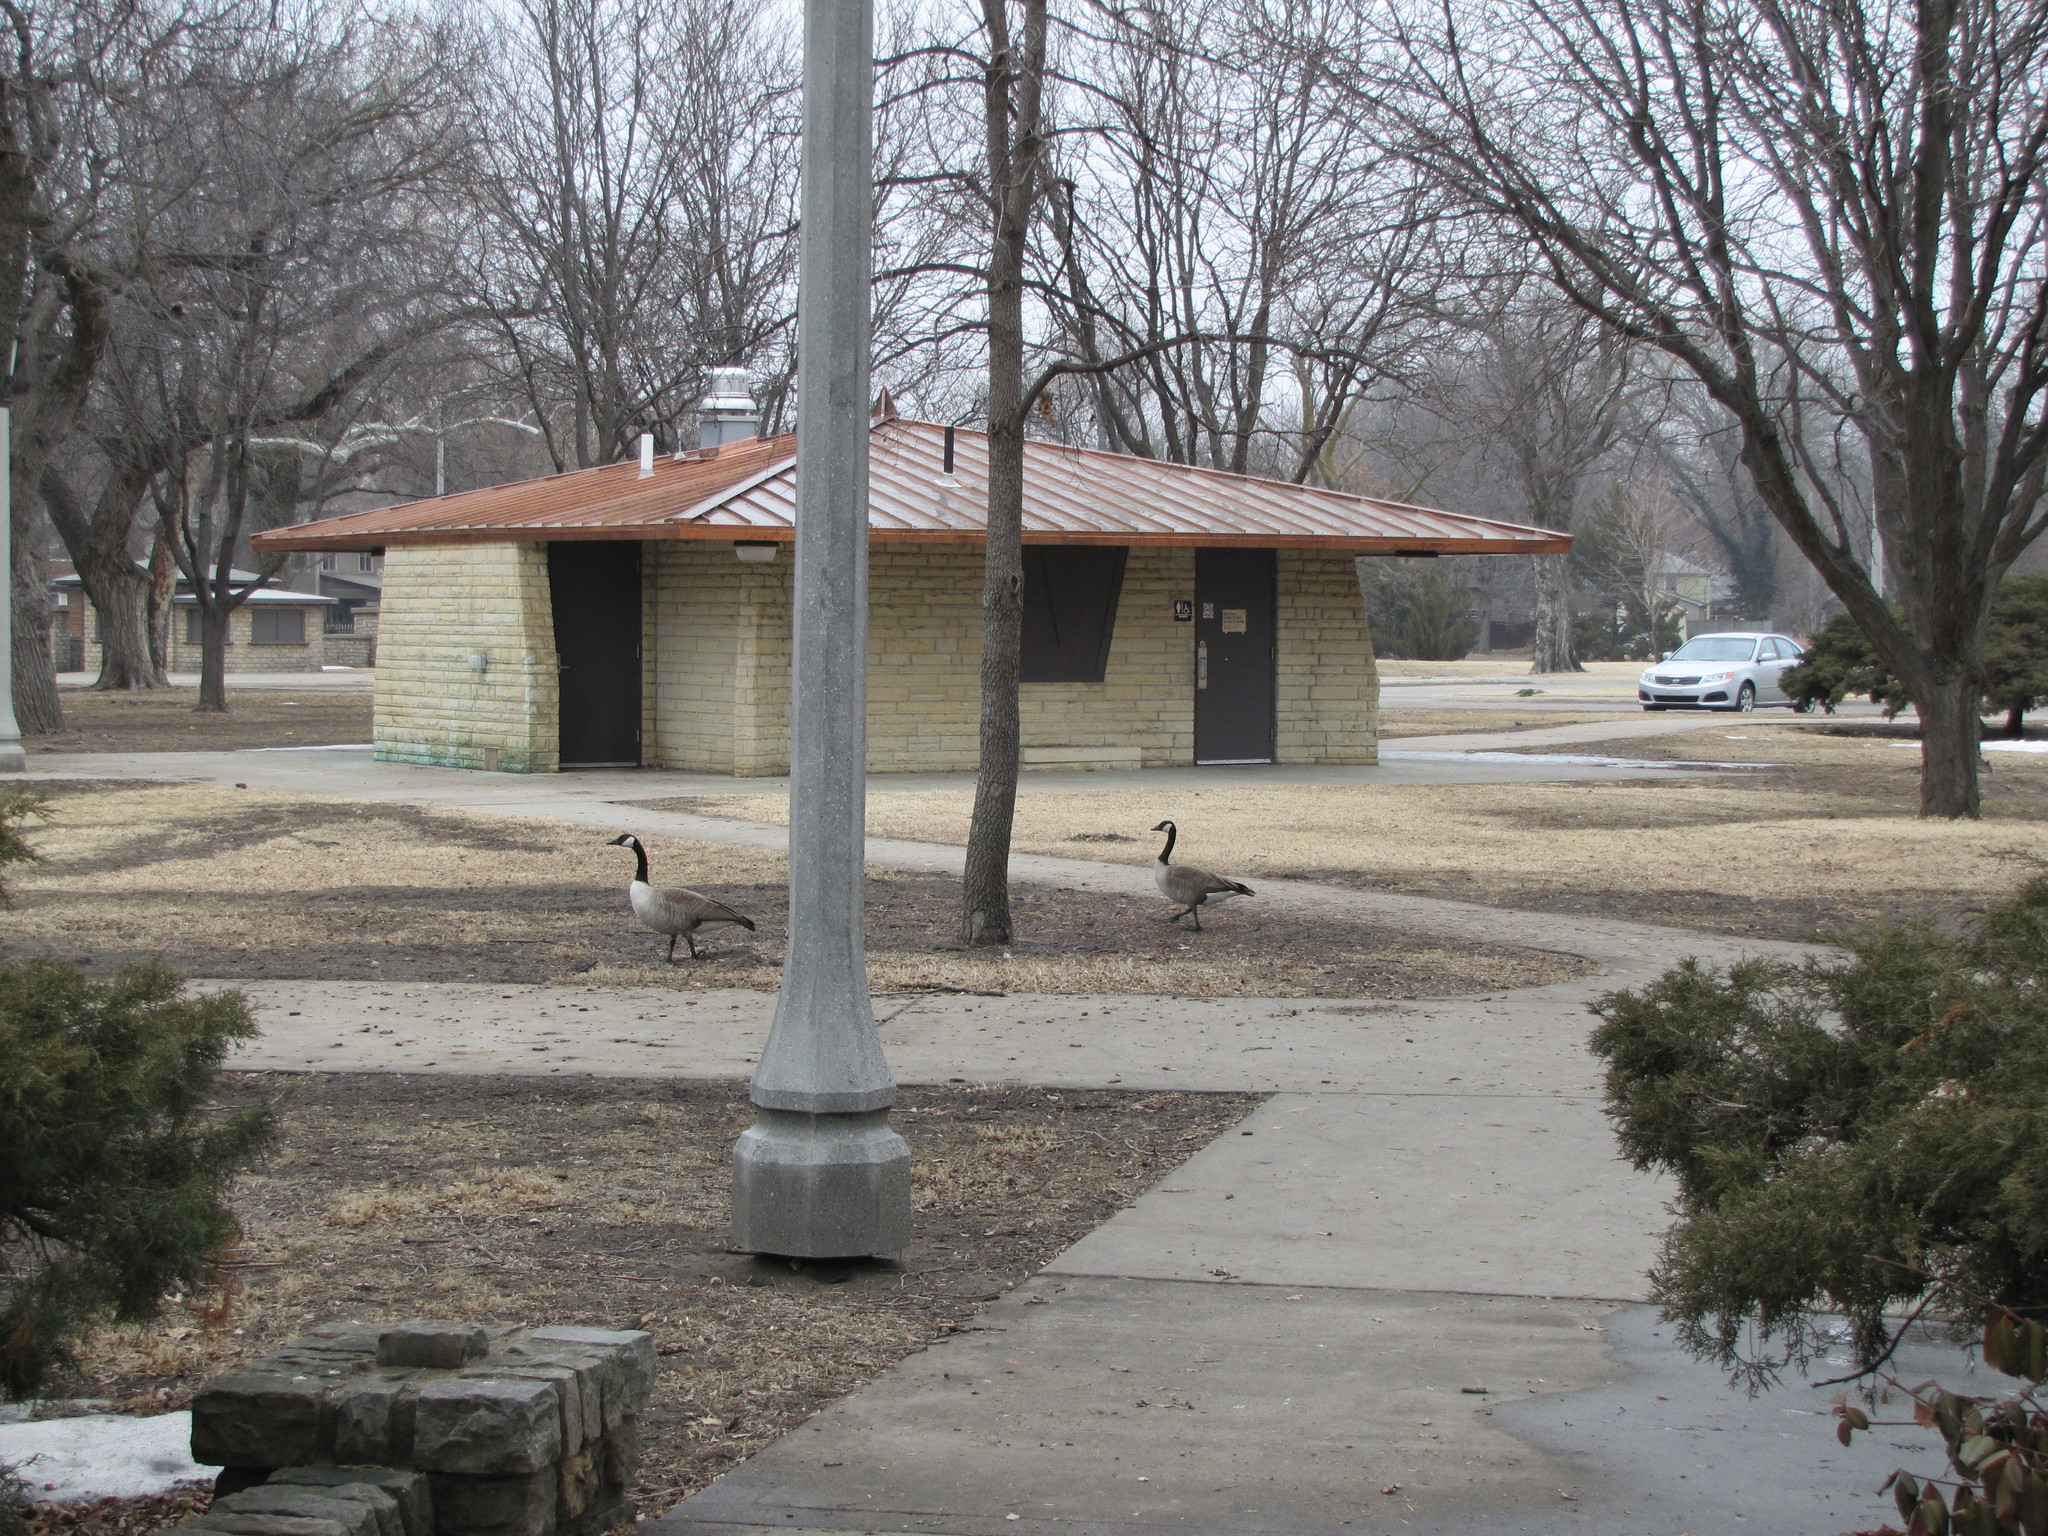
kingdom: Animalia
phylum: Chordata
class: Aves
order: Anseriformes
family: Anatidae
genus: Branta
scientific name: Branta canadensis
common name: Canada goose
